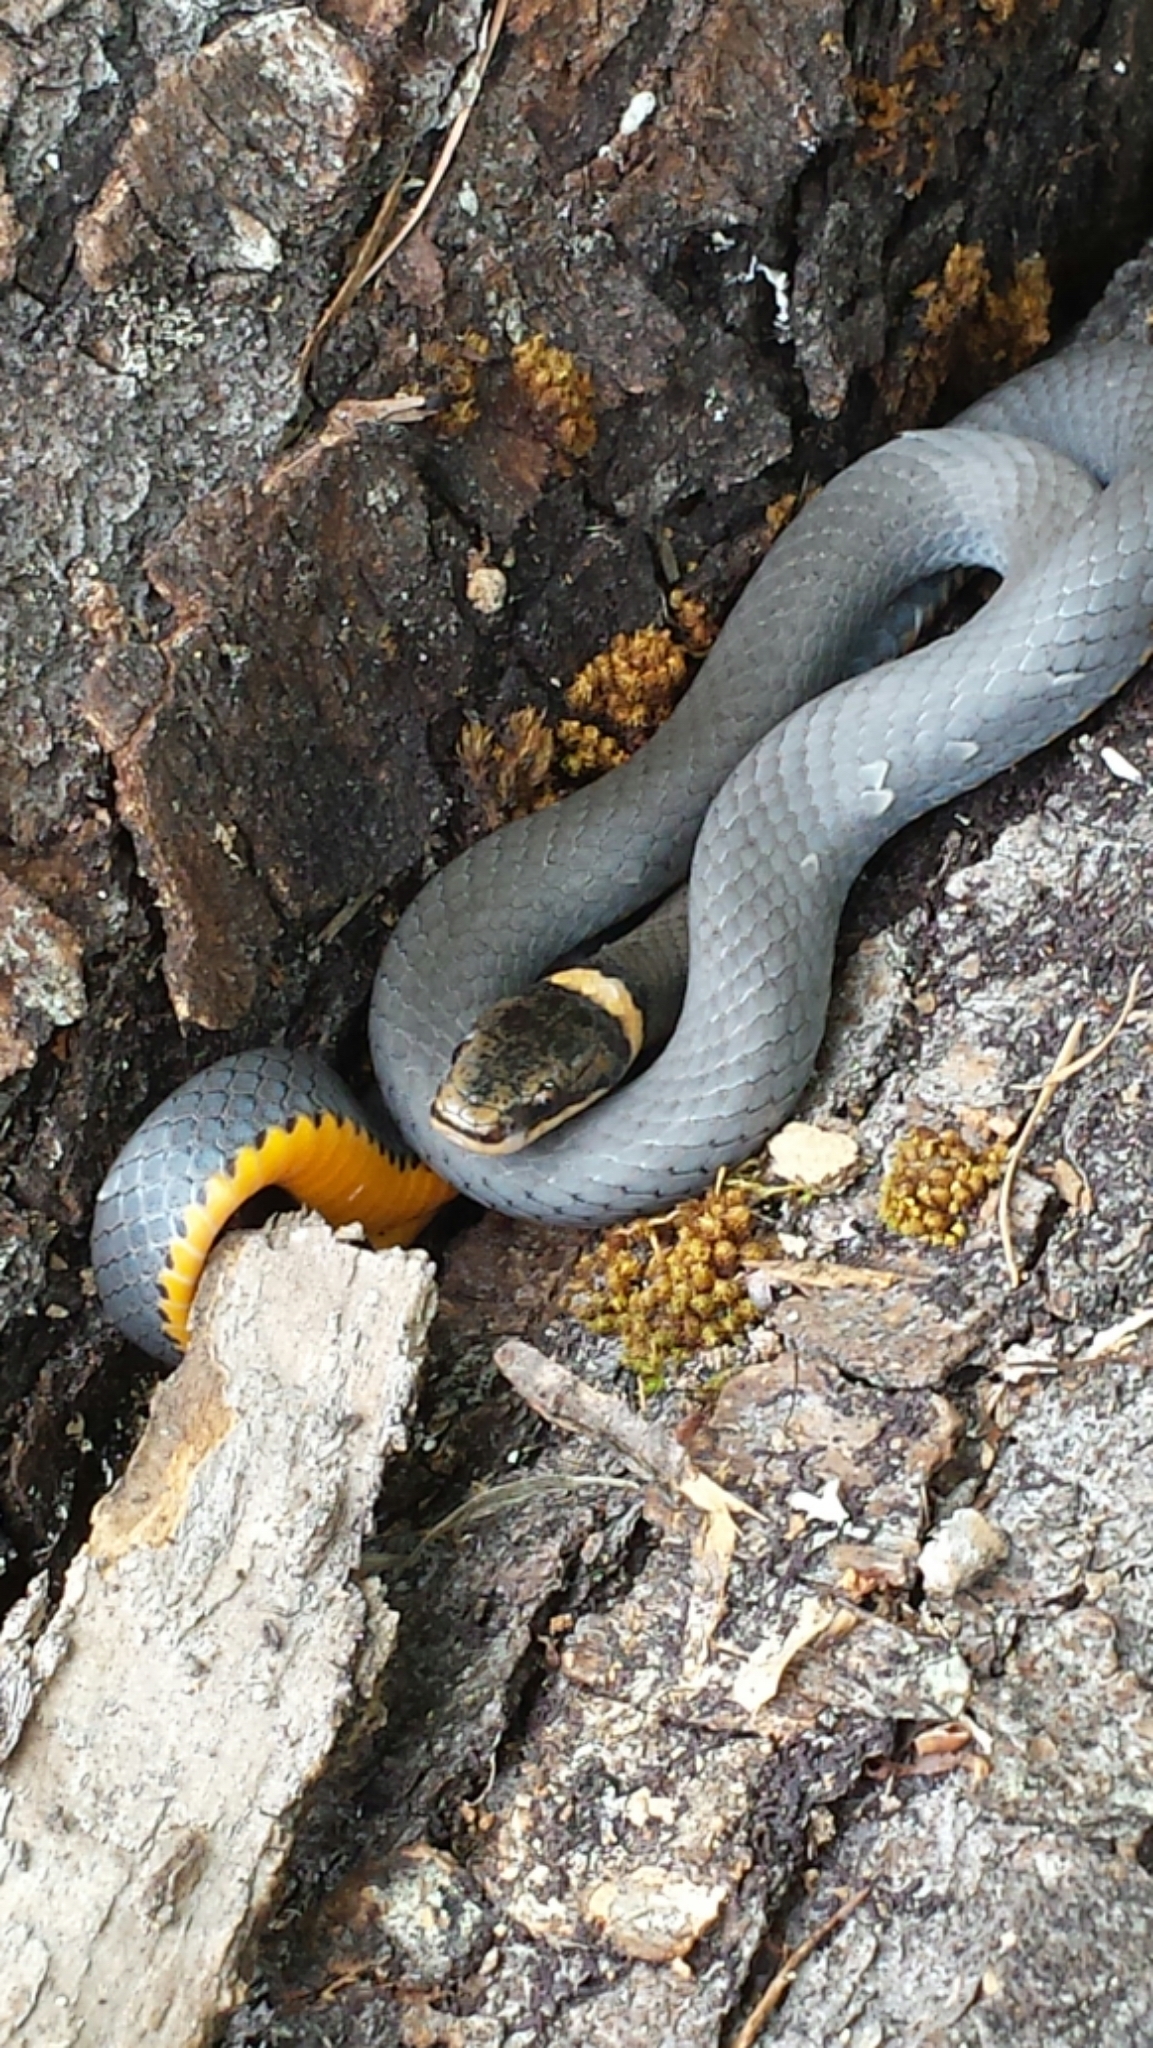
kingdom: Animalia
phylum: Chordata
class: Squamata
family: Colubridae
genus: Diadophis
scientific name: Diadophis punctatus
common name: Ringneck snake
